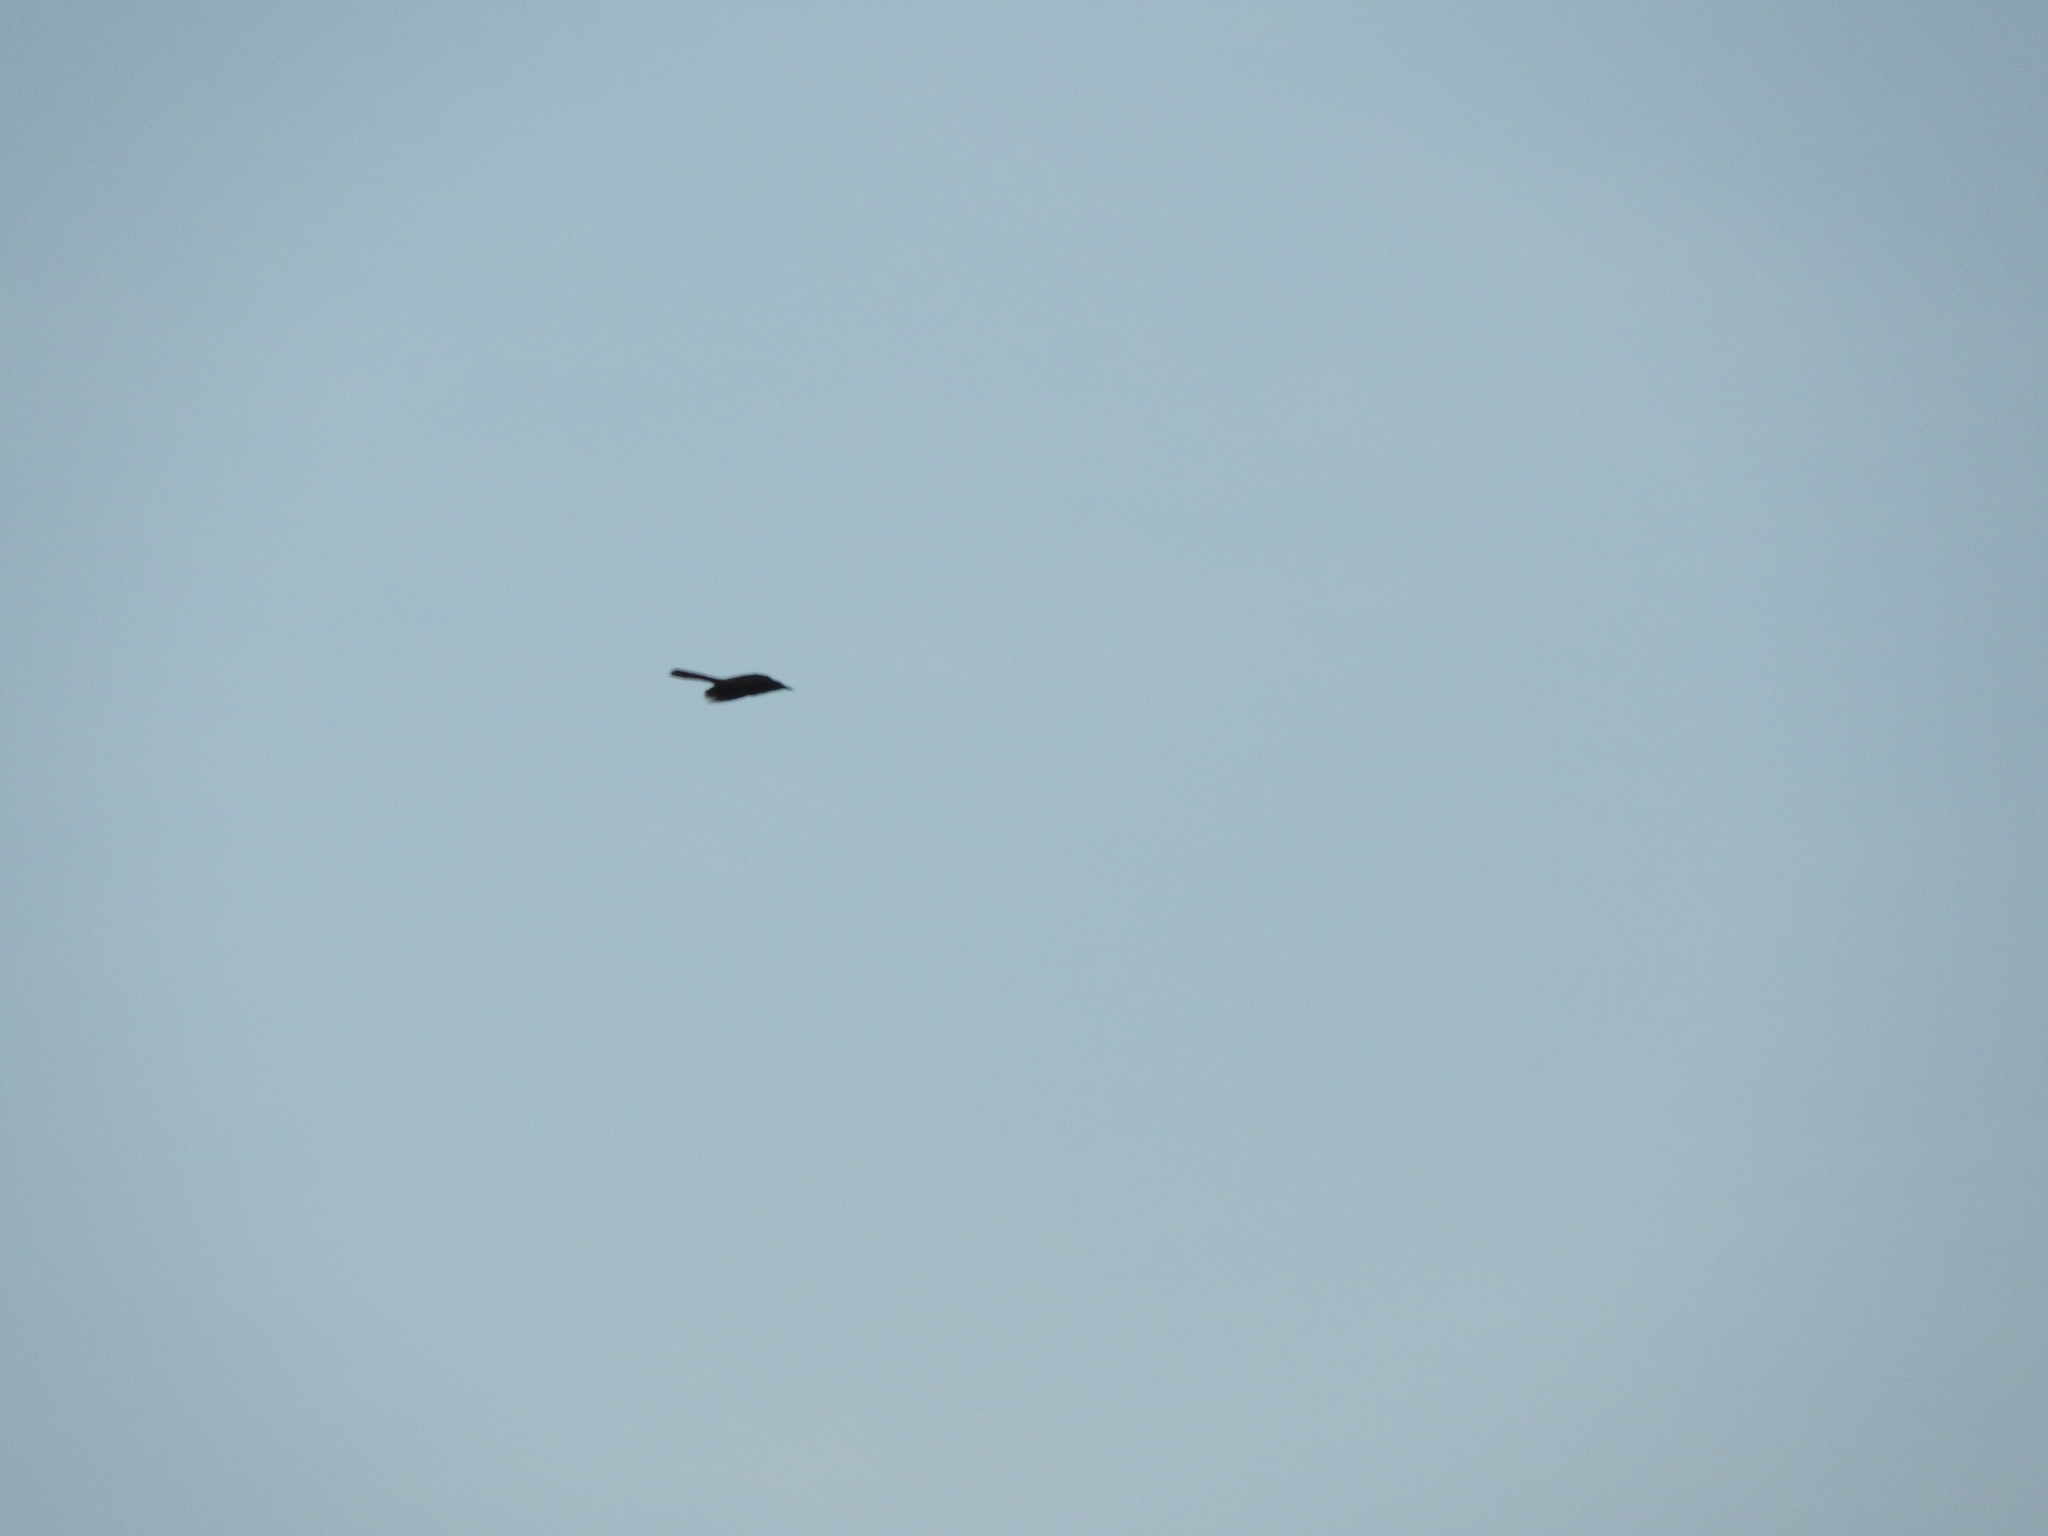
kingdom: Animalia
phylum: Chordata
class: Aves
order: Passeriformes
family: Icteridae
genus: Quiscalus
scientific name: Quiscalus mexicanus
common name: Great-tailed grackle
